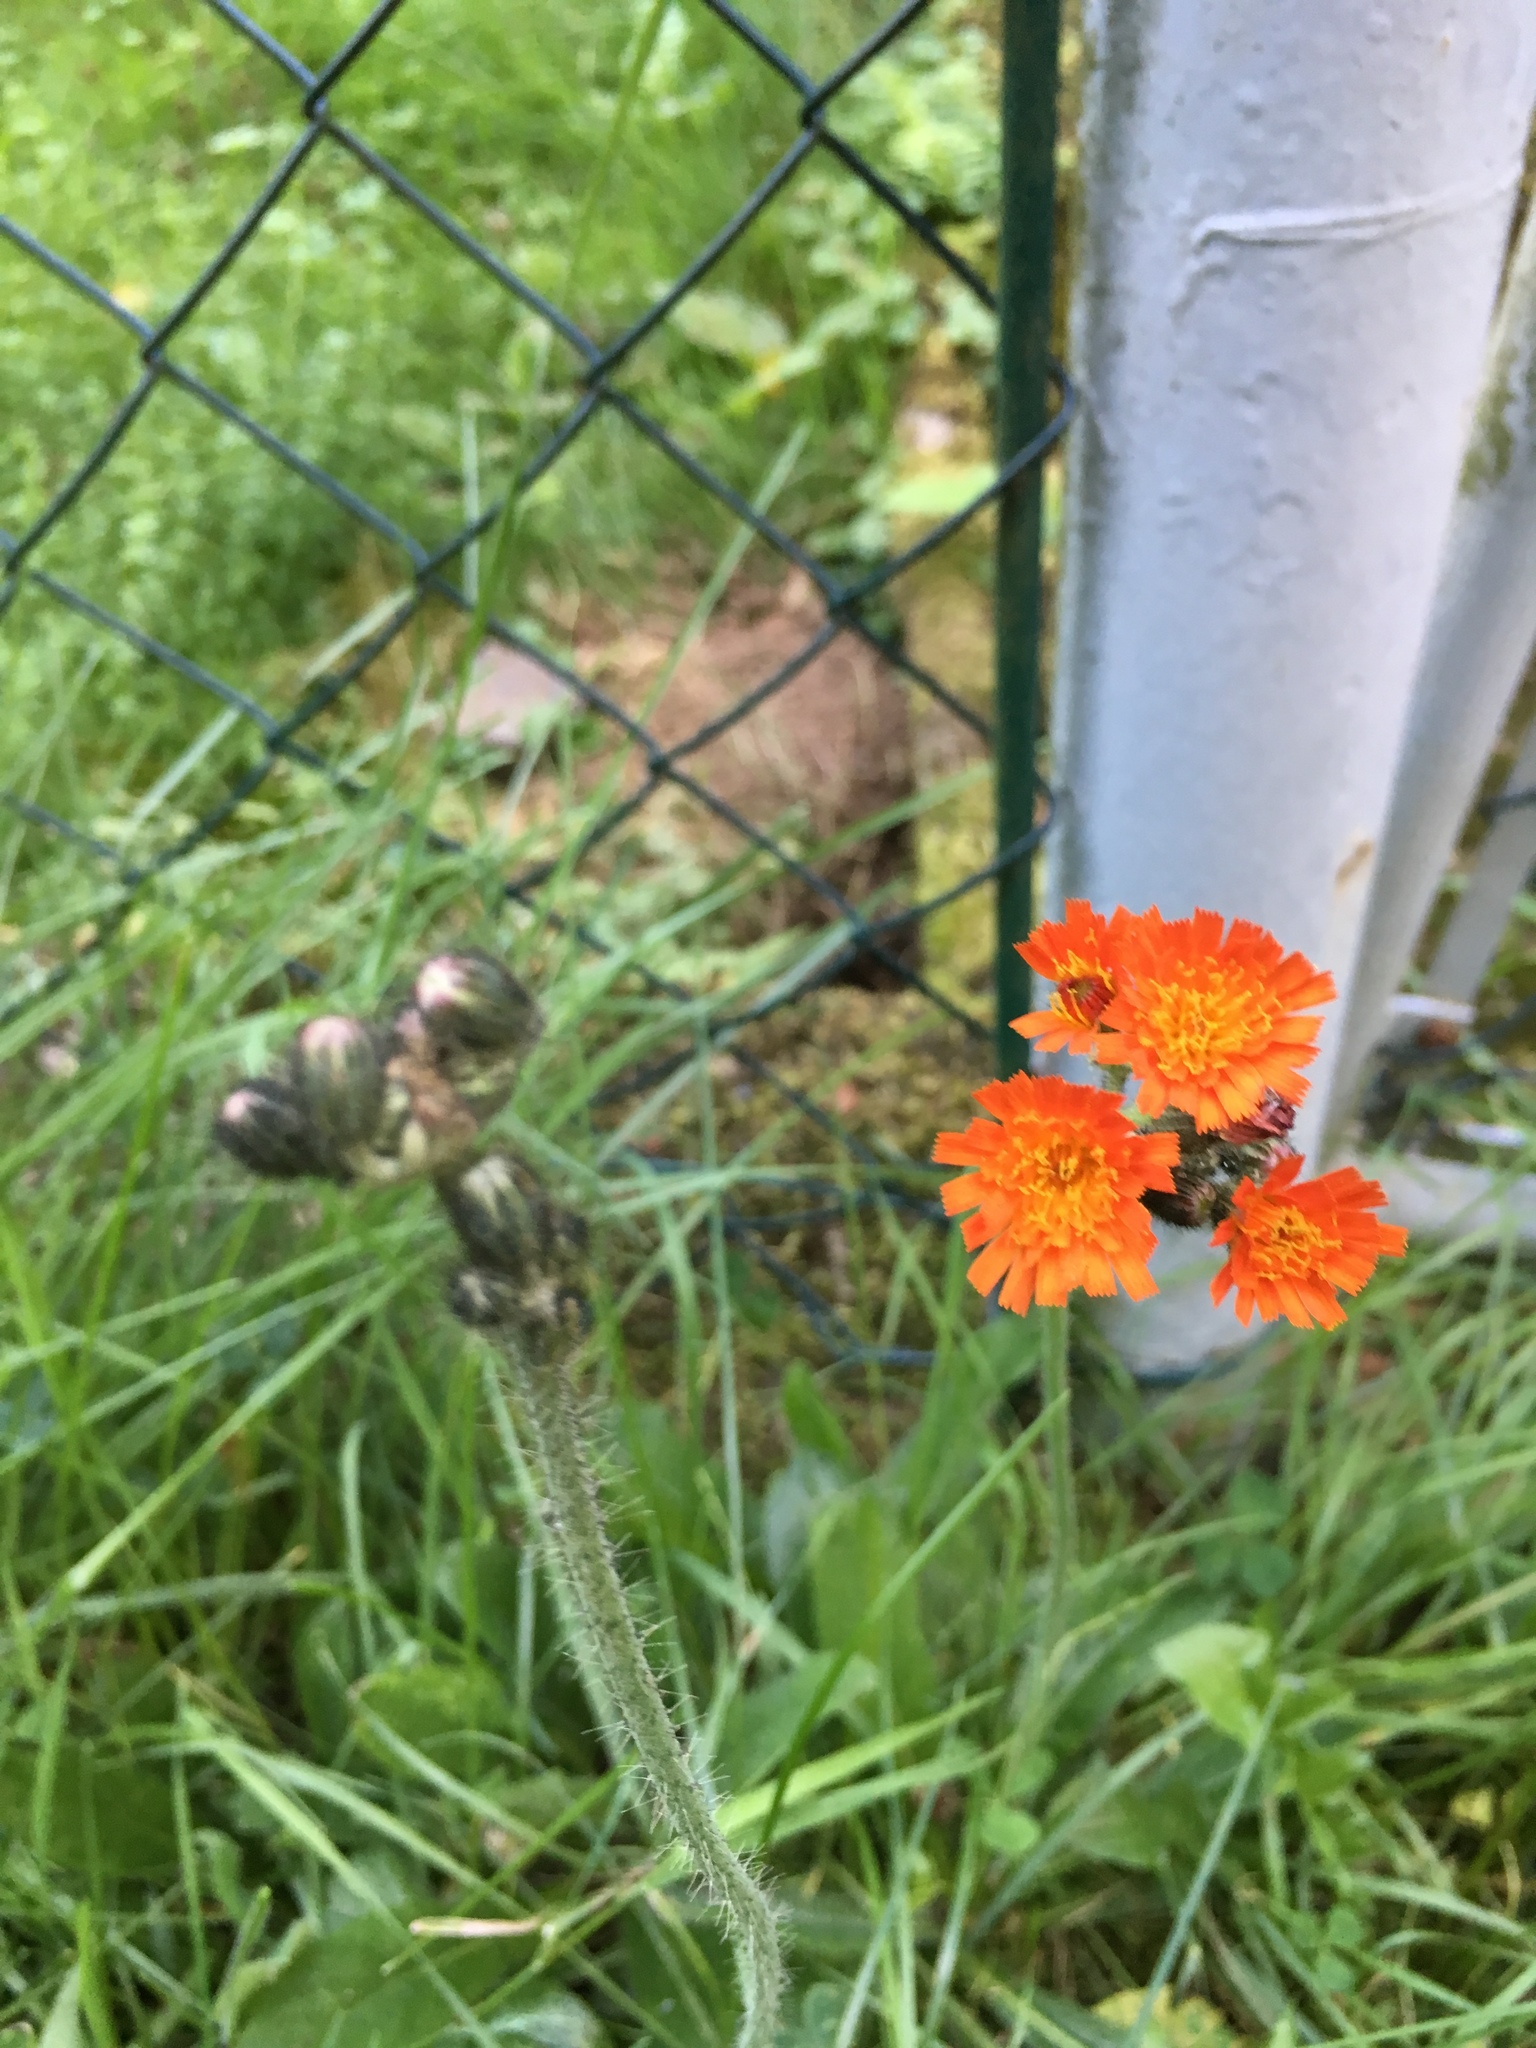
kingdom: Plantae
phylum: Tracheophyta
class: Magnoliopsida
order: Asterales
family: Asteraceae
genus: Pilosella
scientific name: Pilosella aurantiaca
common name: Fox-and-cubs
